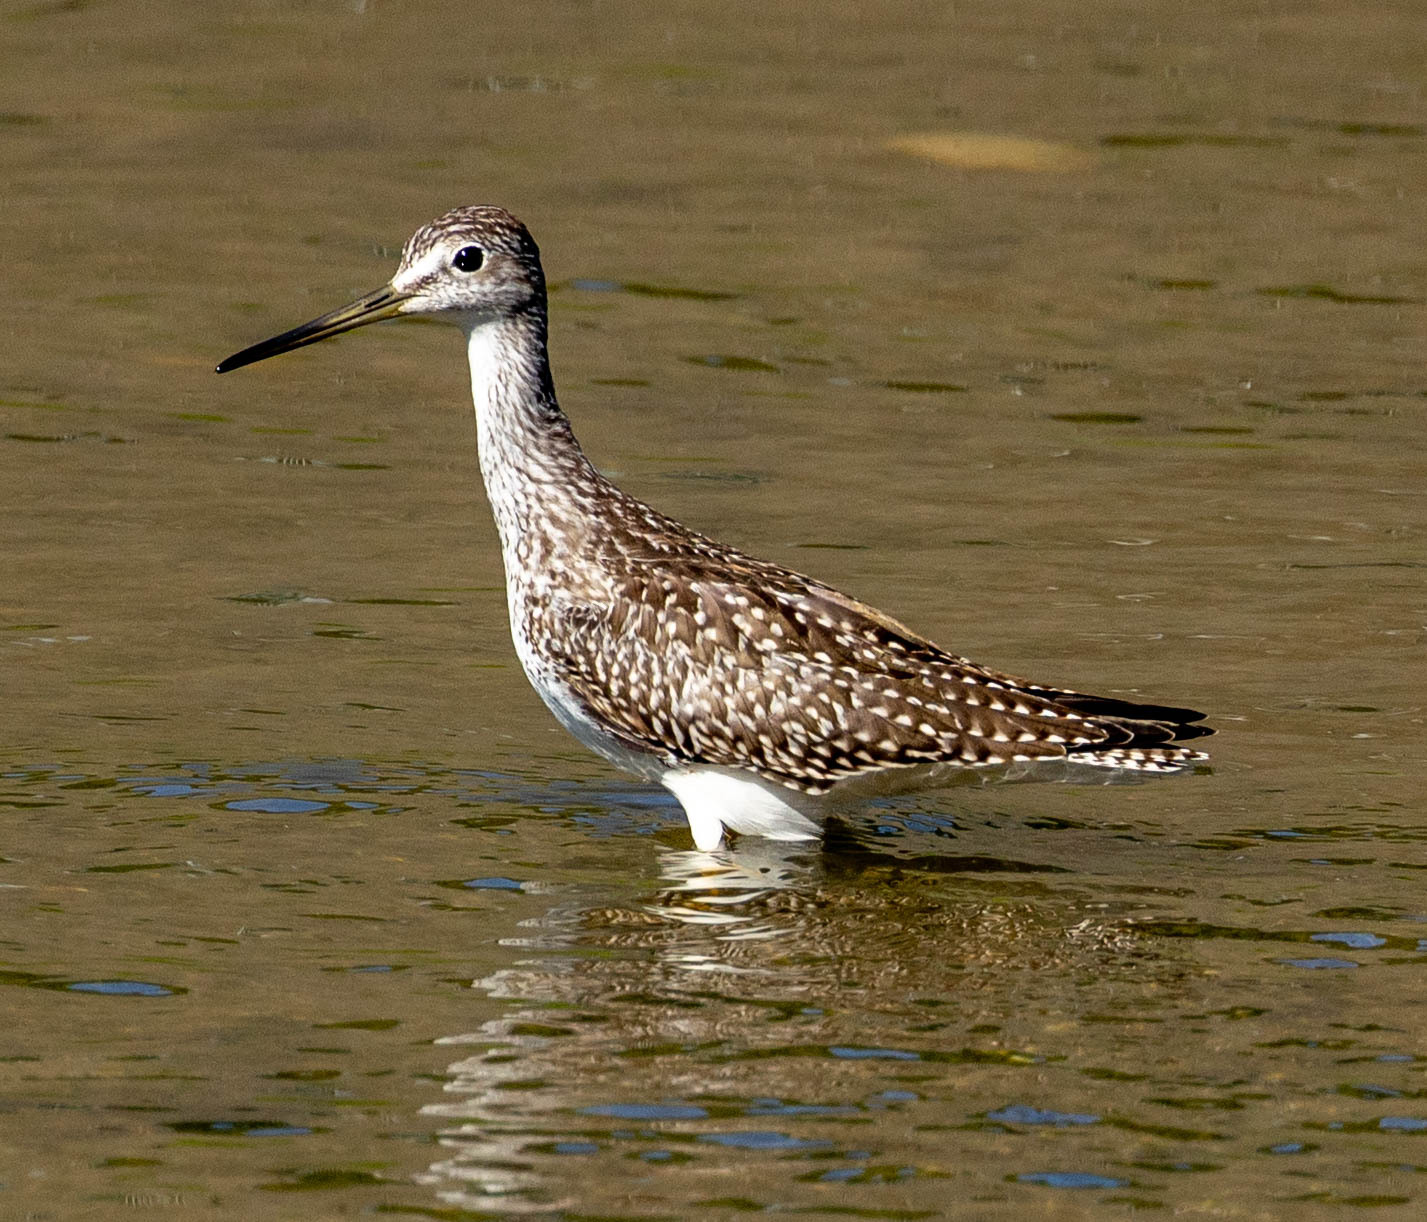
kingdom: Animalia
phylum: Chordata
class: Aves
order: Charadriiformes
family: Scolopacidae
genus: Tringa
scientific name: Tringa melanoleuca
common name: Greater yellowlegs
